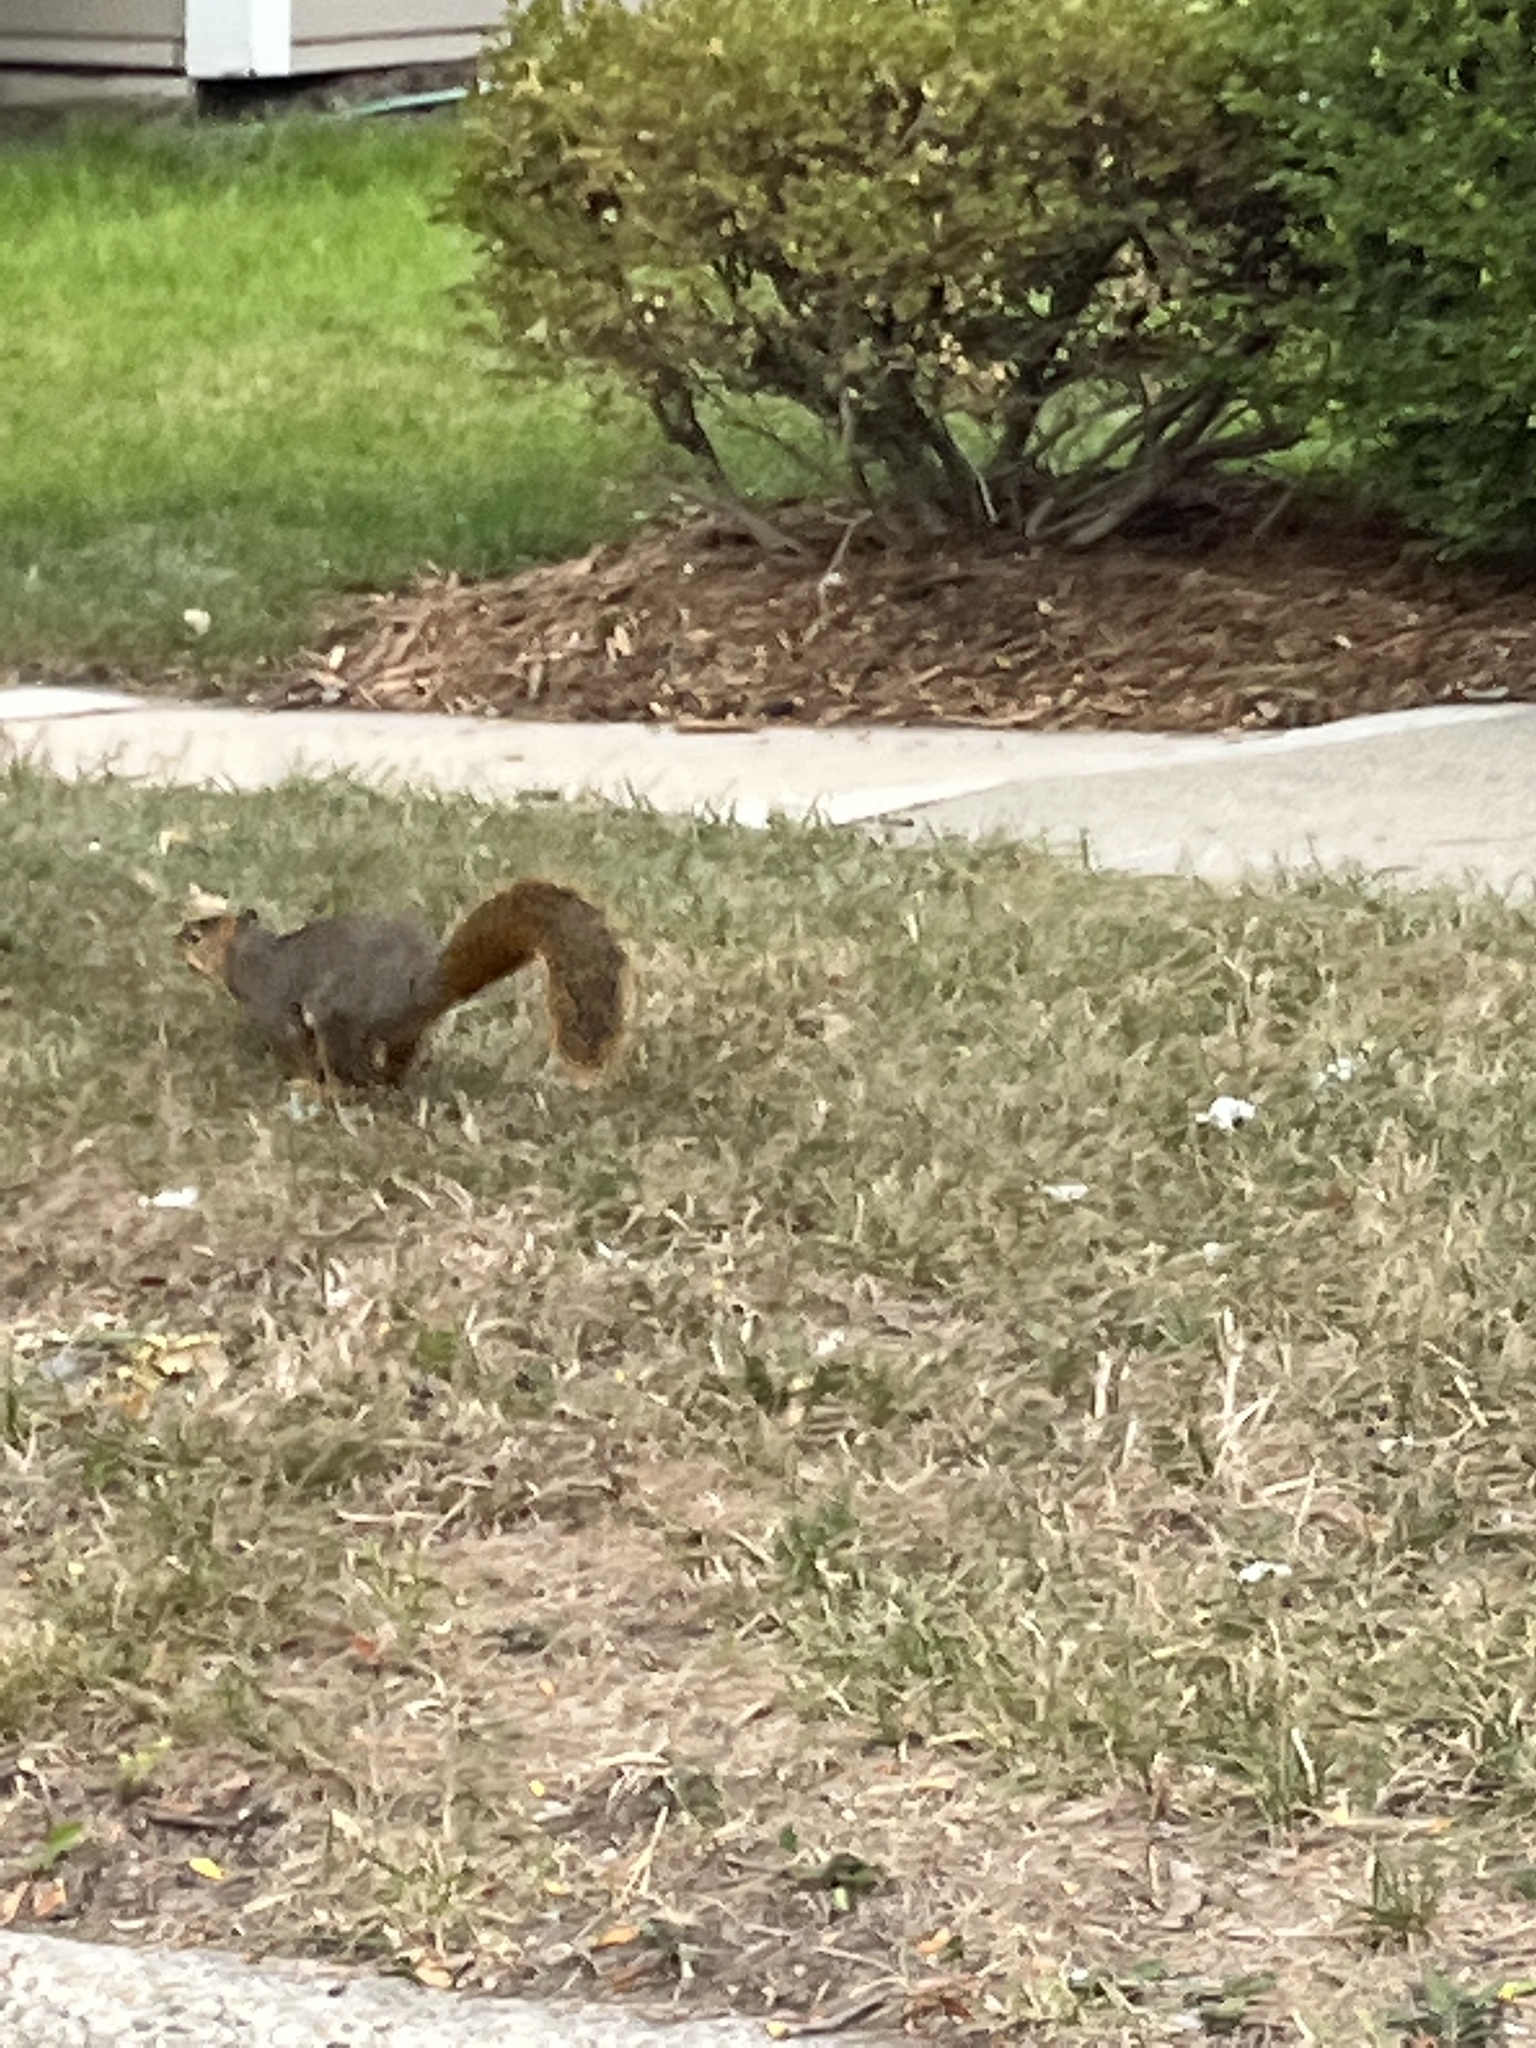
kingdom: Animalia
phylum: Chordata
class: Mammalia
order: Rodentia
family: Sciuridae
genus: Sciurus
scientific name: Sciurus niger
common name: Fox squirrel
